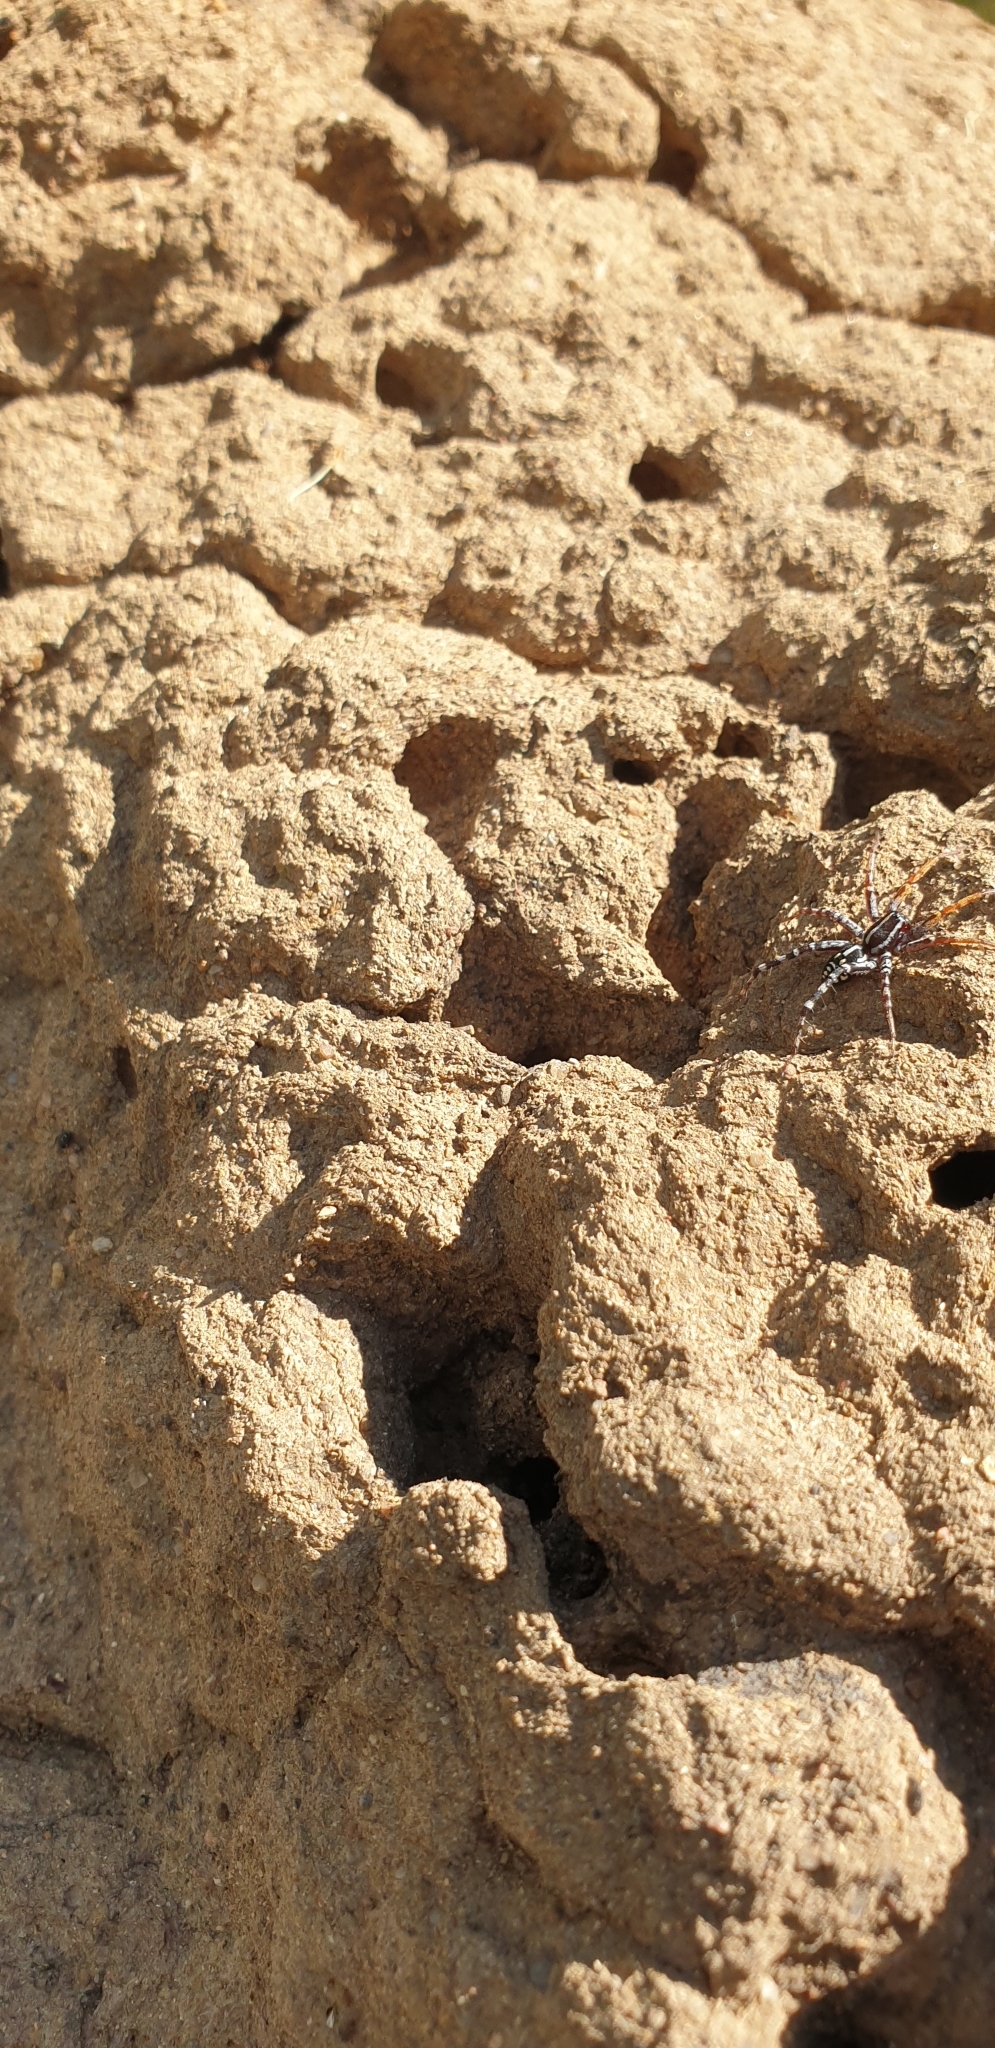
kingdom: Animalia
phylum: Arthropoda
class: Arachnida
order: Araneae
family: Corinnidae
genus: Nyssus
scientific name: Nyssus coloripes
